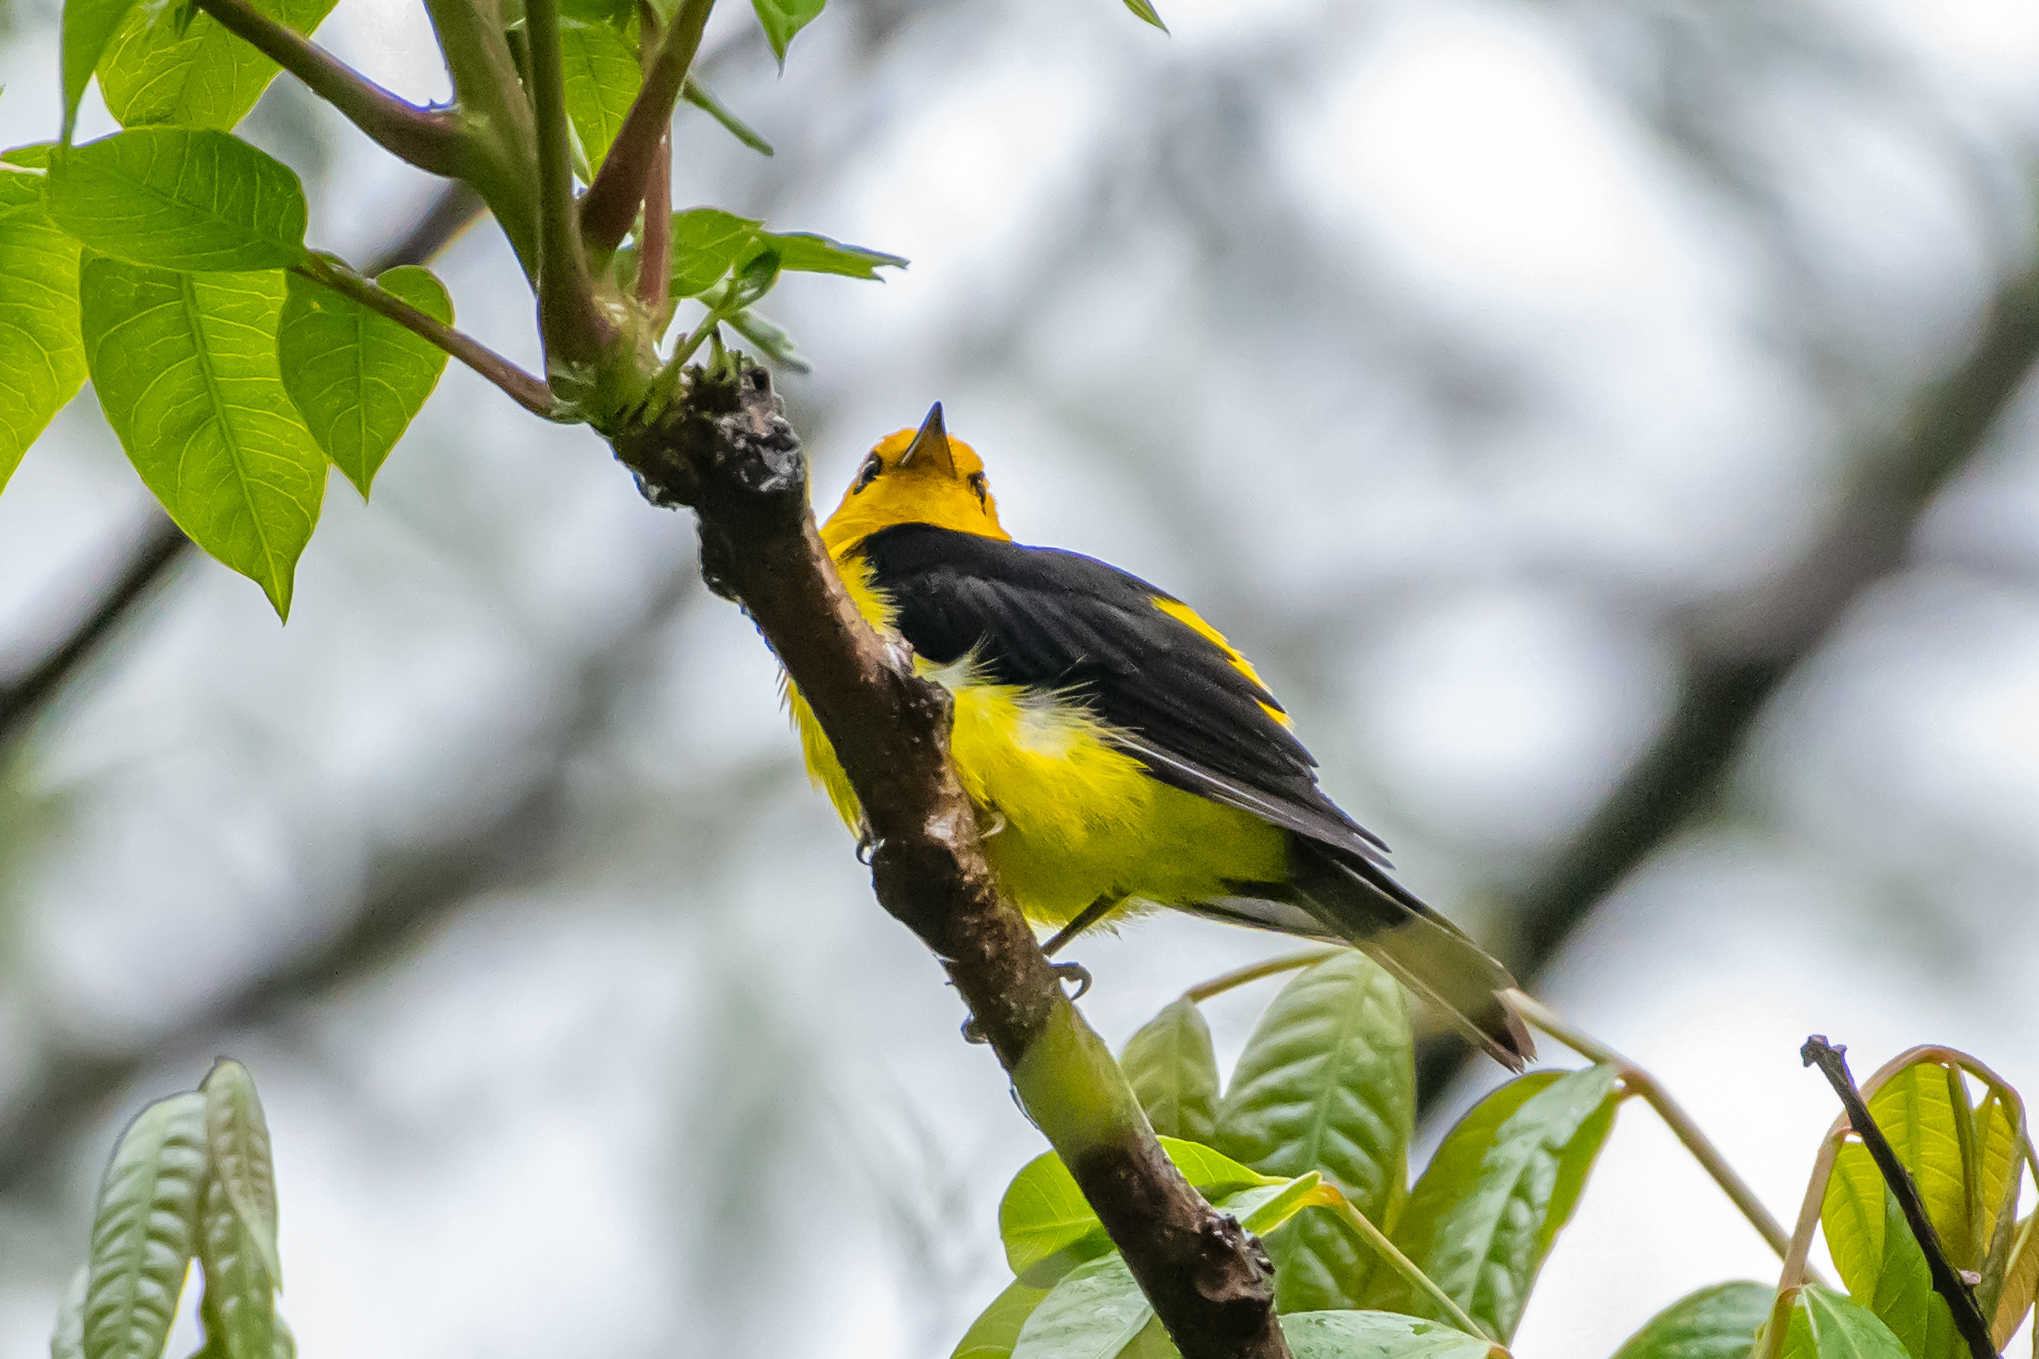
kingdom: Animalia
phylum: Chordata
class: Aves
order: Passeriformes
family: Thraupidae
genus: Chrysothlypis
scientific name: Chrysothlypis chrysomelas
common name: Black-and-yellow tanager
